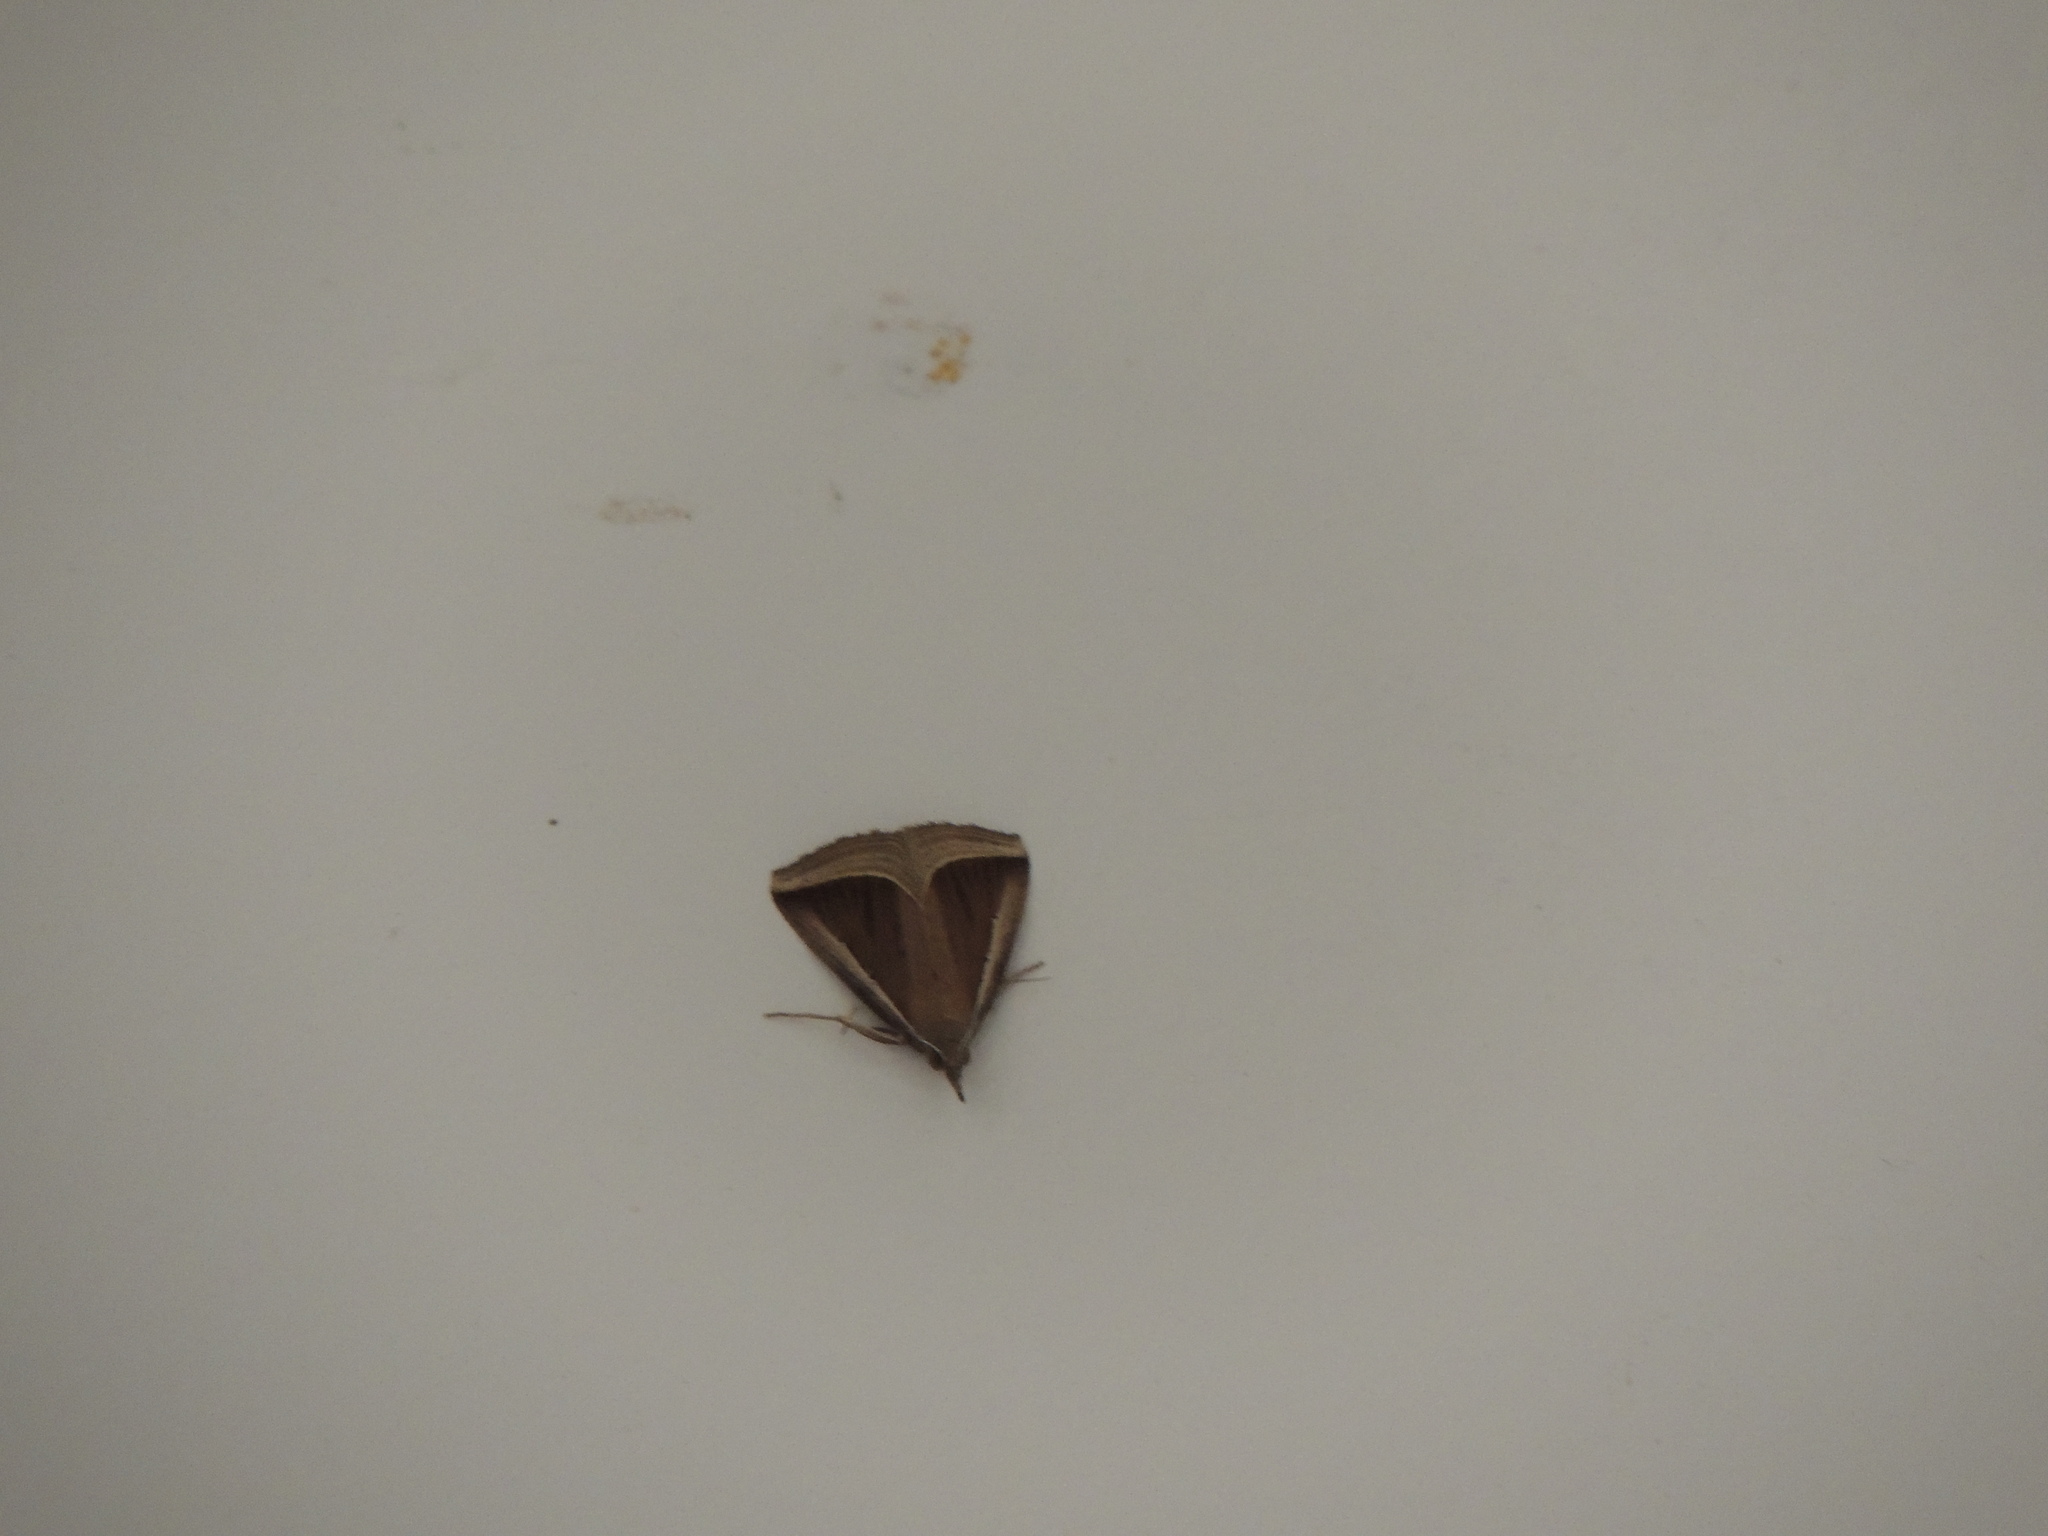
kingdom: Animalia
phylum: Arthropoda
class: Insecta
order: Lepidoptera
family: Erebidae
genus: Hypena
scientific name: Hypena conscitalis
